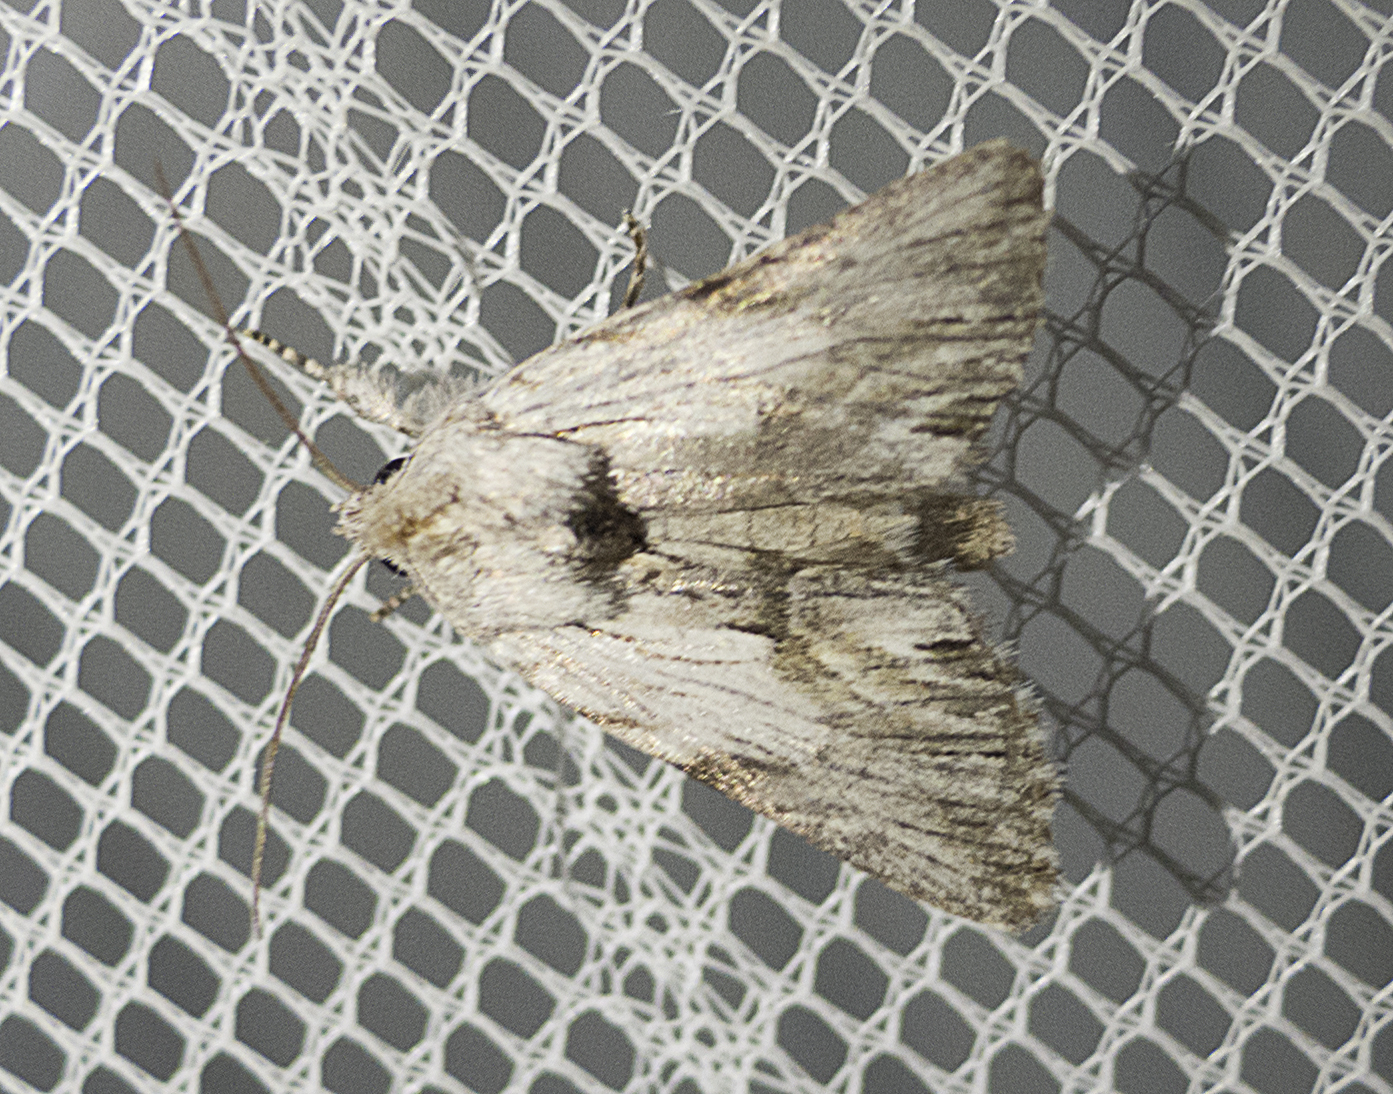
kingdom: Animalia
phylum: Arthropoda
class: Insecta
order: Lepidoptera
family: Noctuidae
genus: Calophasia
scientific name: Calophasia platyptera
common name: Antirrhinum brocade
